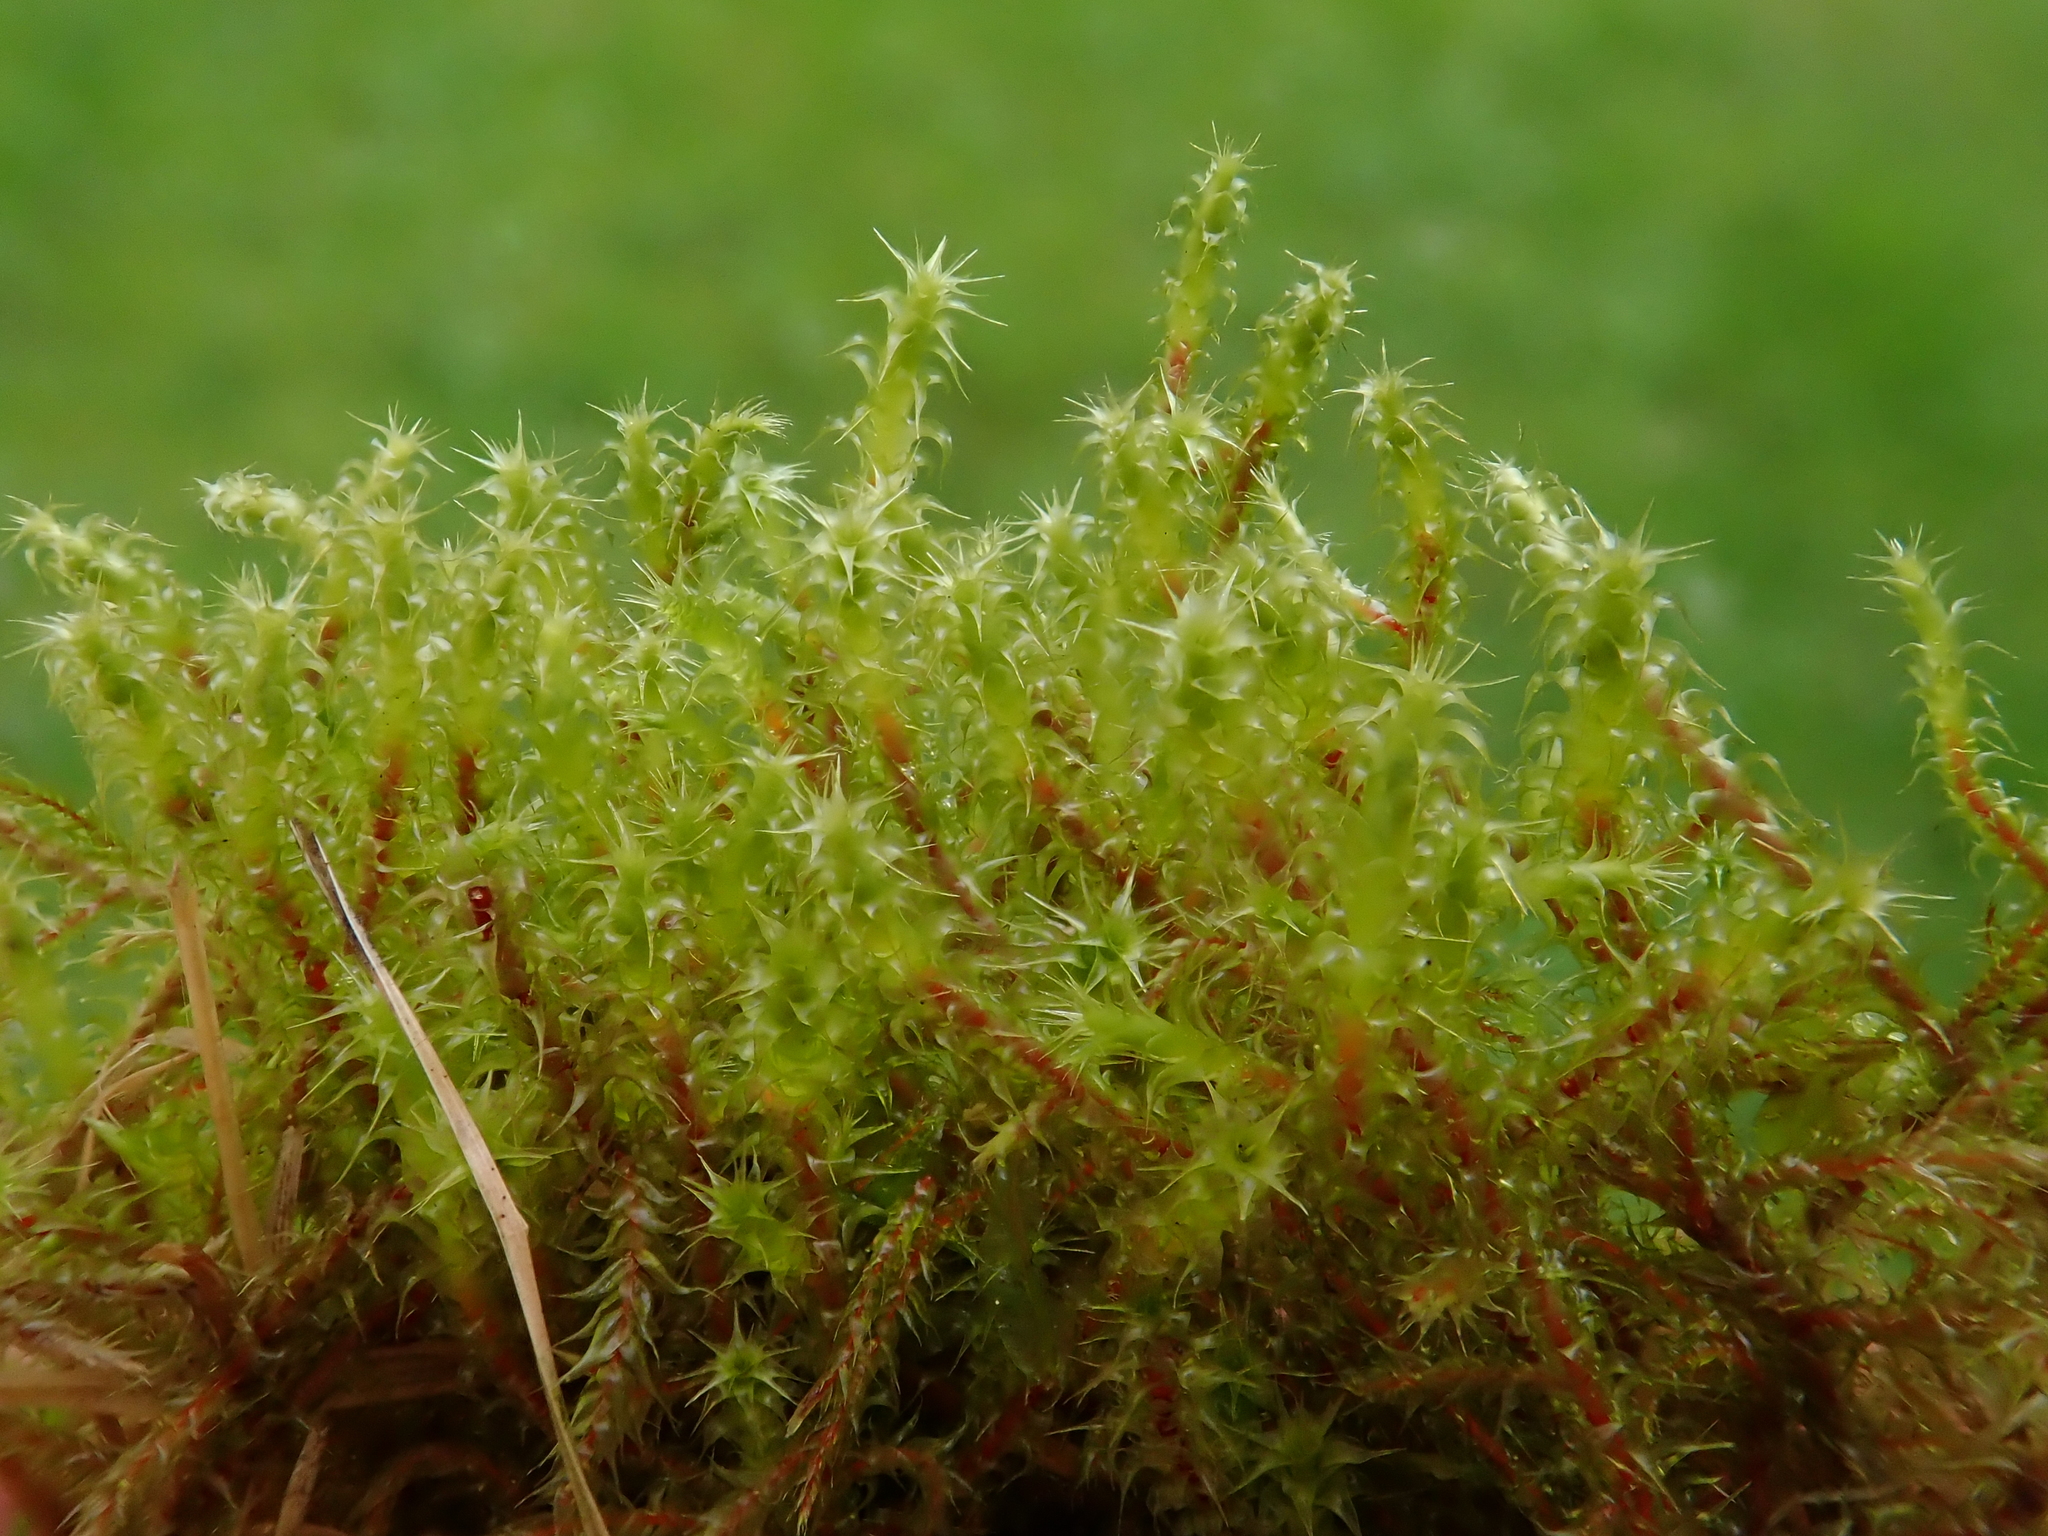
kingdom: Plantae
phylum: Bryophyta
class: Bryopsida
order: Hypnales
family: Hylocomiaceae
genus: Rhytidiadelphus
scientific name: Rhytidiadelphus squarrosus
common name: Springy turf-moss
